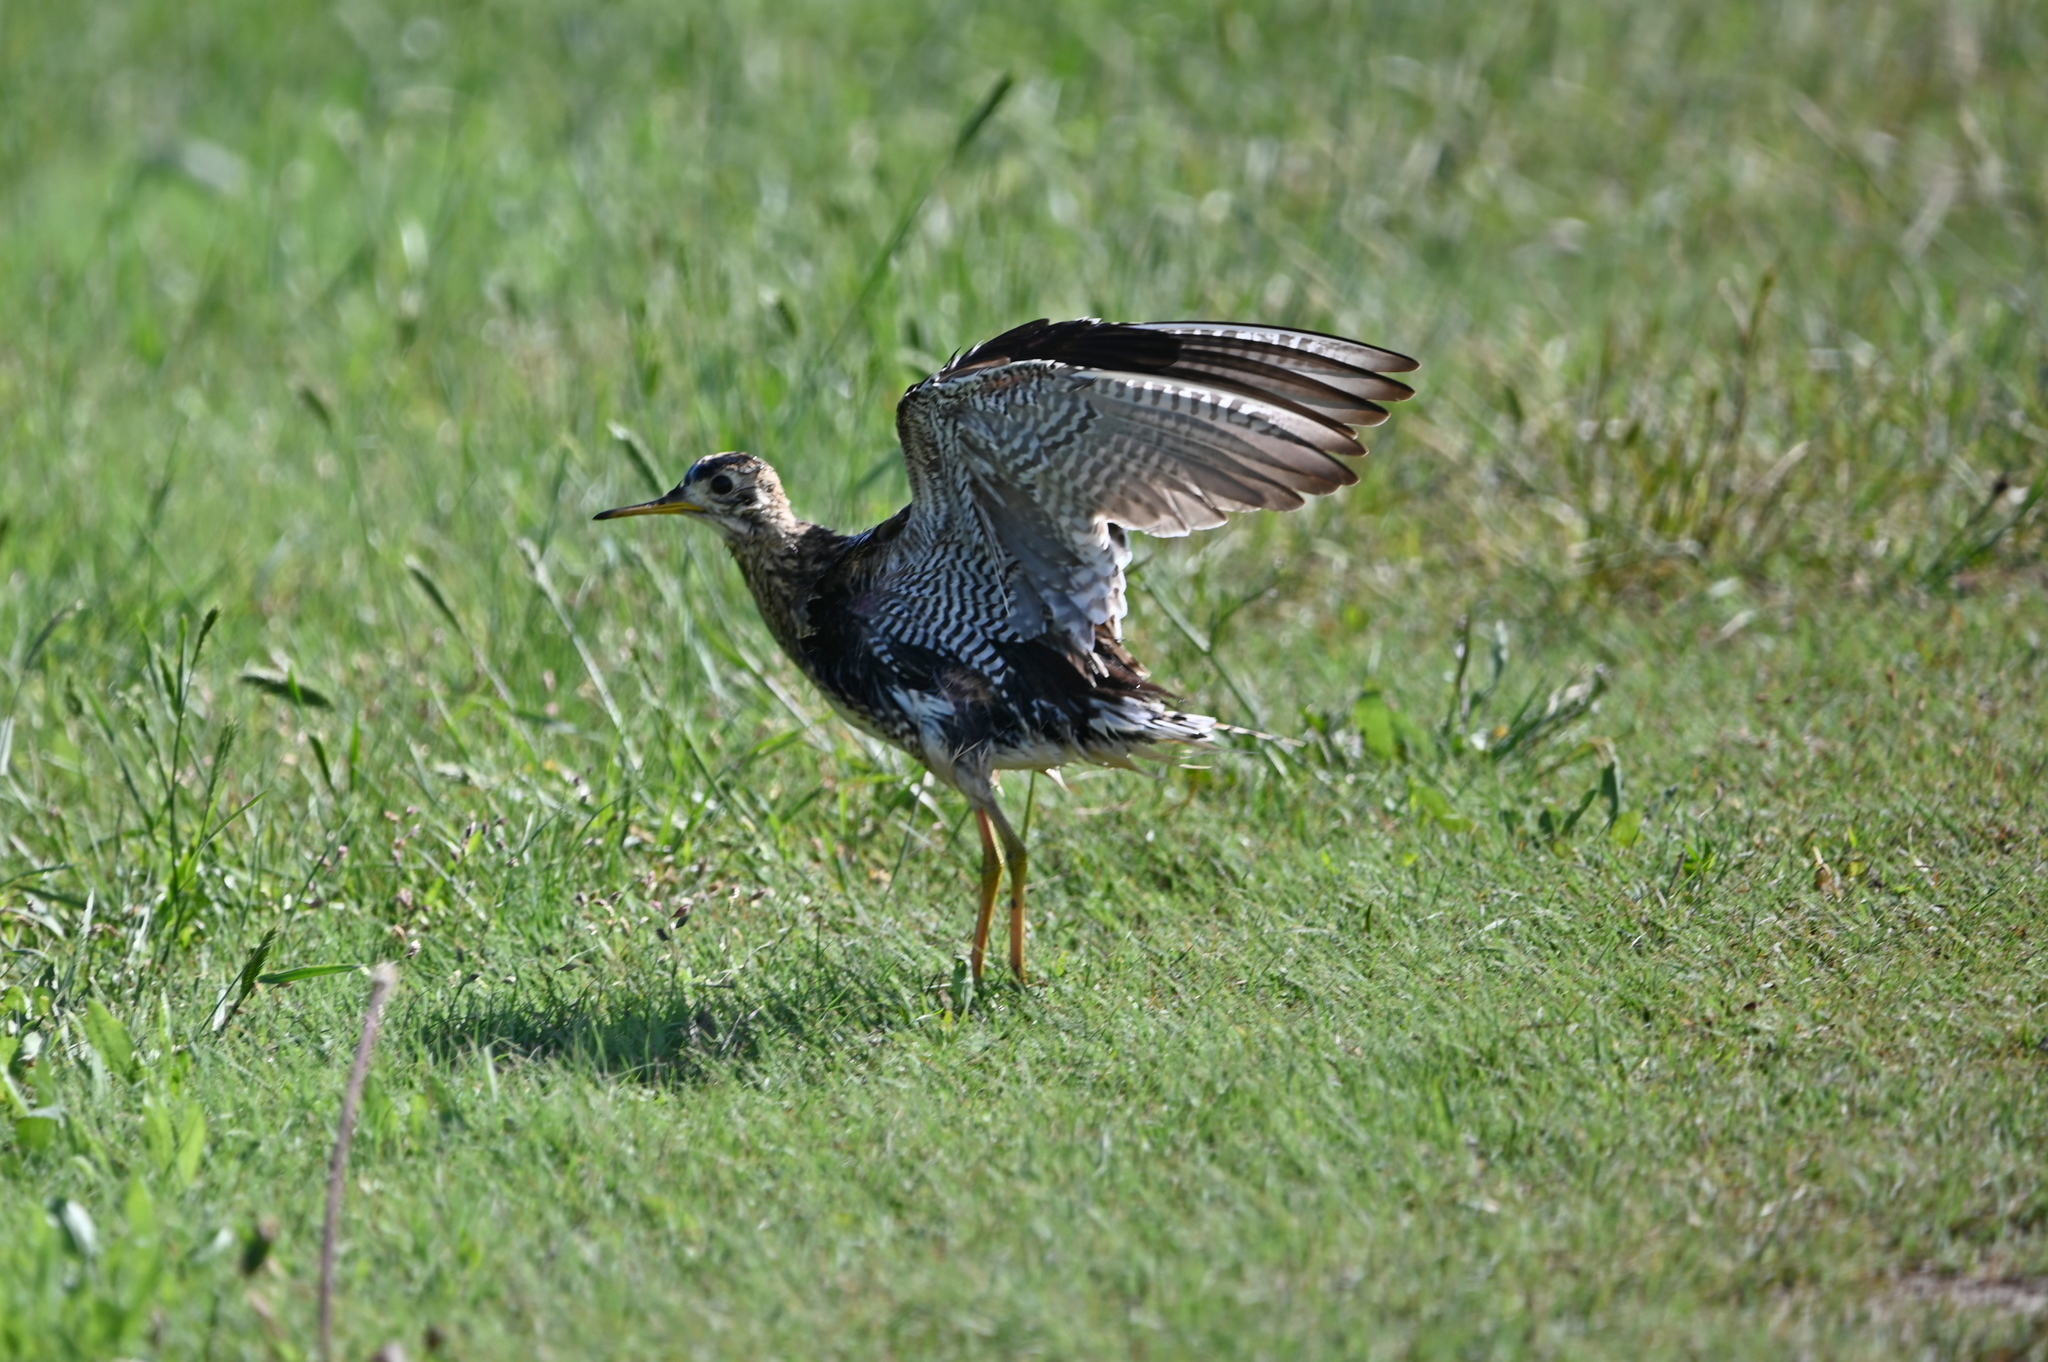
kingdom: Animalia
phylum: Chordata
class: Aves
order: Charadriiformes
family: Scolopacidae
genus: Bartramia
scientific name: Bartramia longicauda
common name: Upland sandpiper
